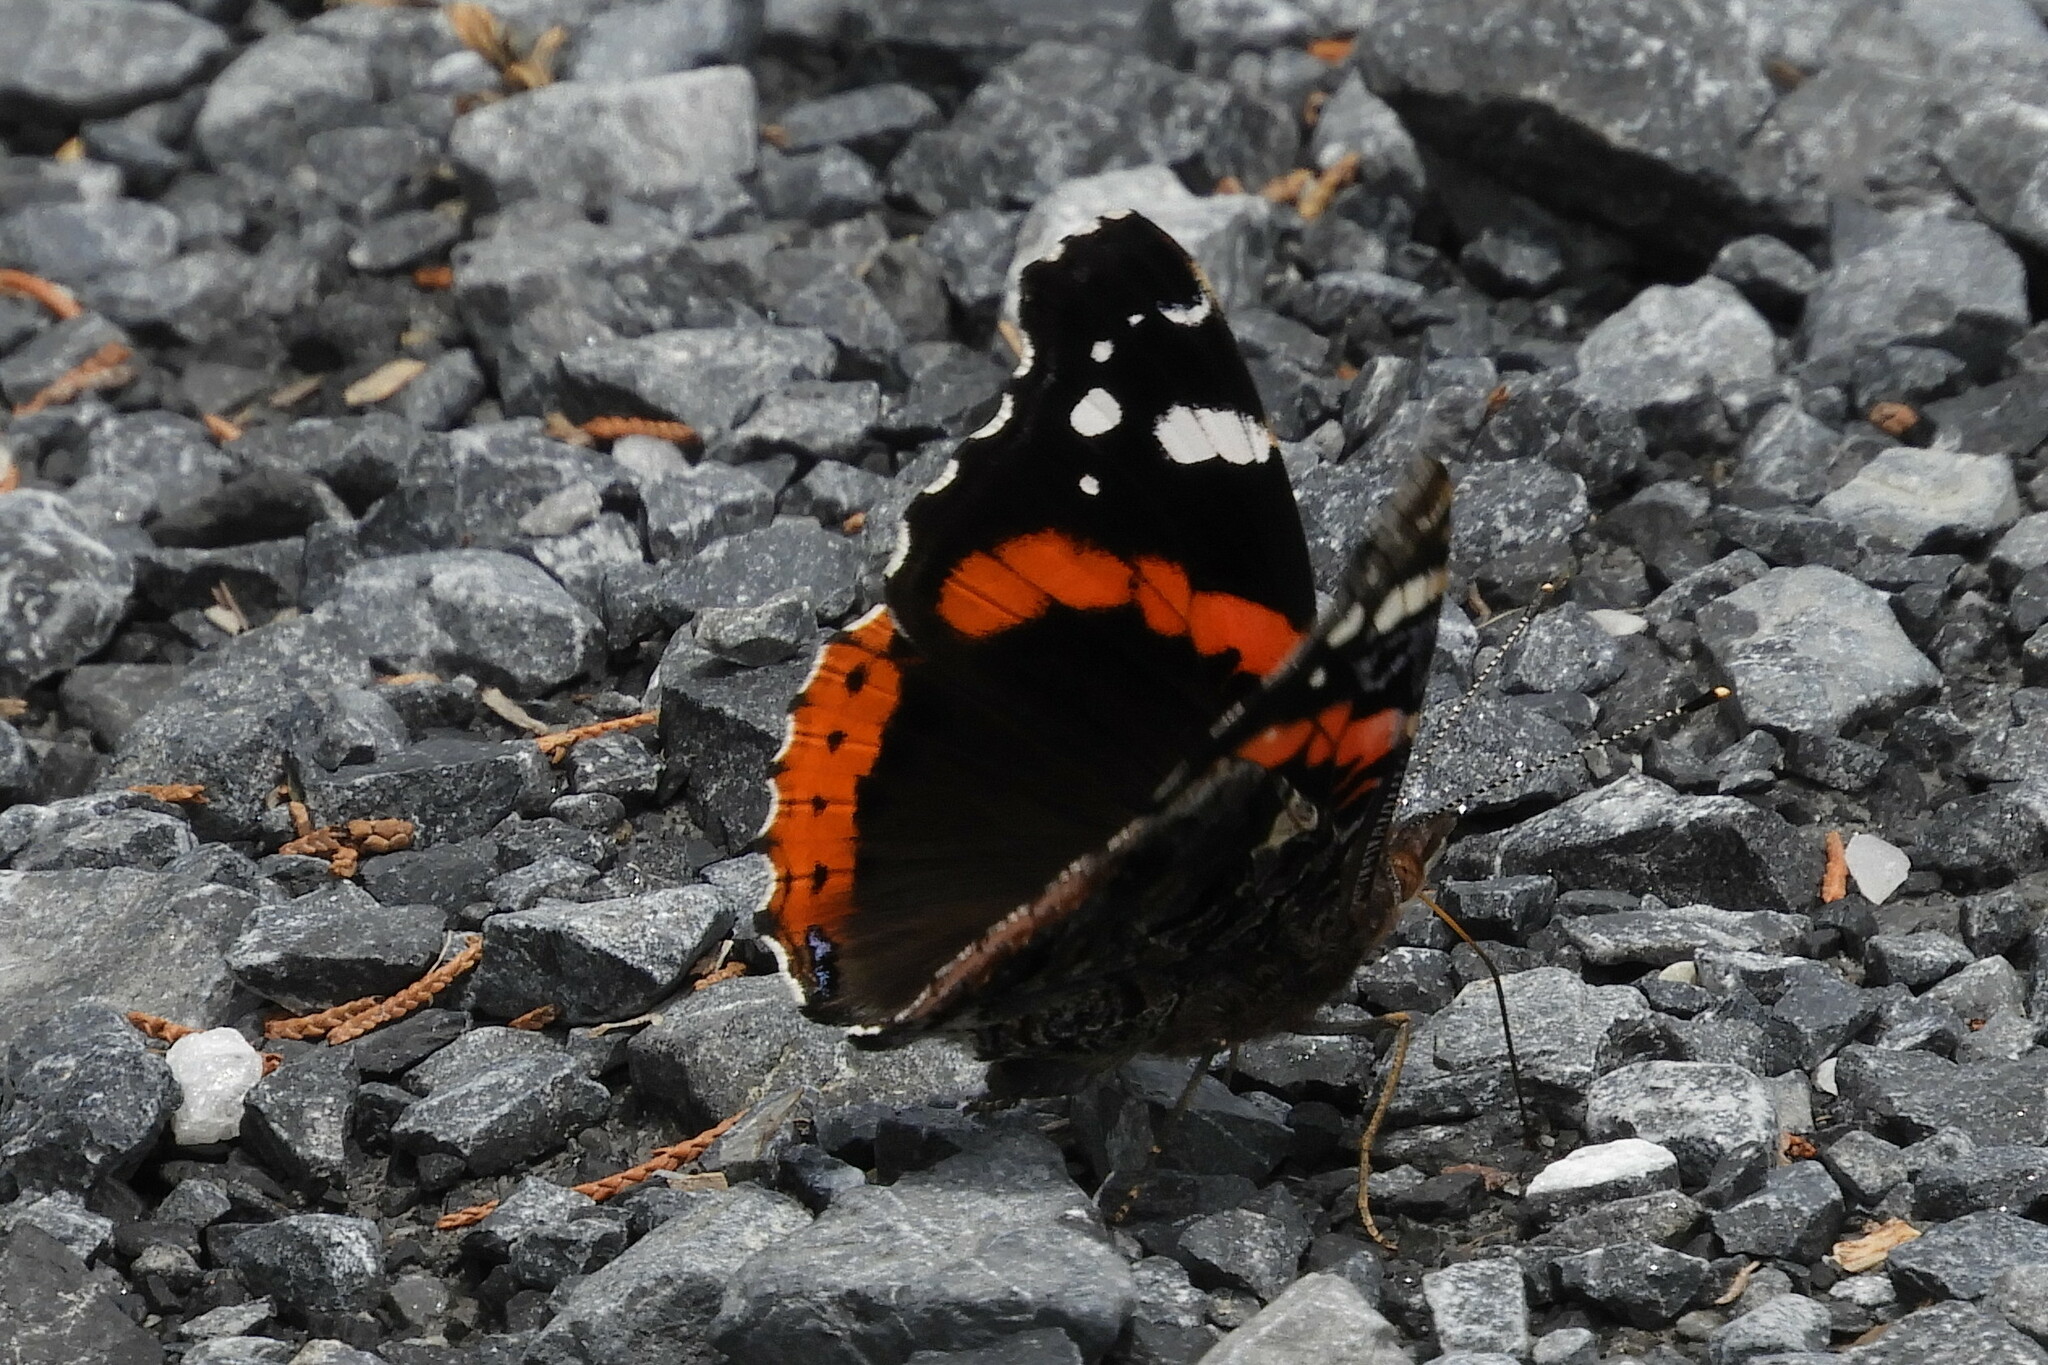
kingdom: Animalia
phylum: Arthropoda
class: Insecta
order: Lepidoptera
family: Nymphalidae
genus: Vanessa
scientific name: Vanessa atalanta
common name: Red admiral
